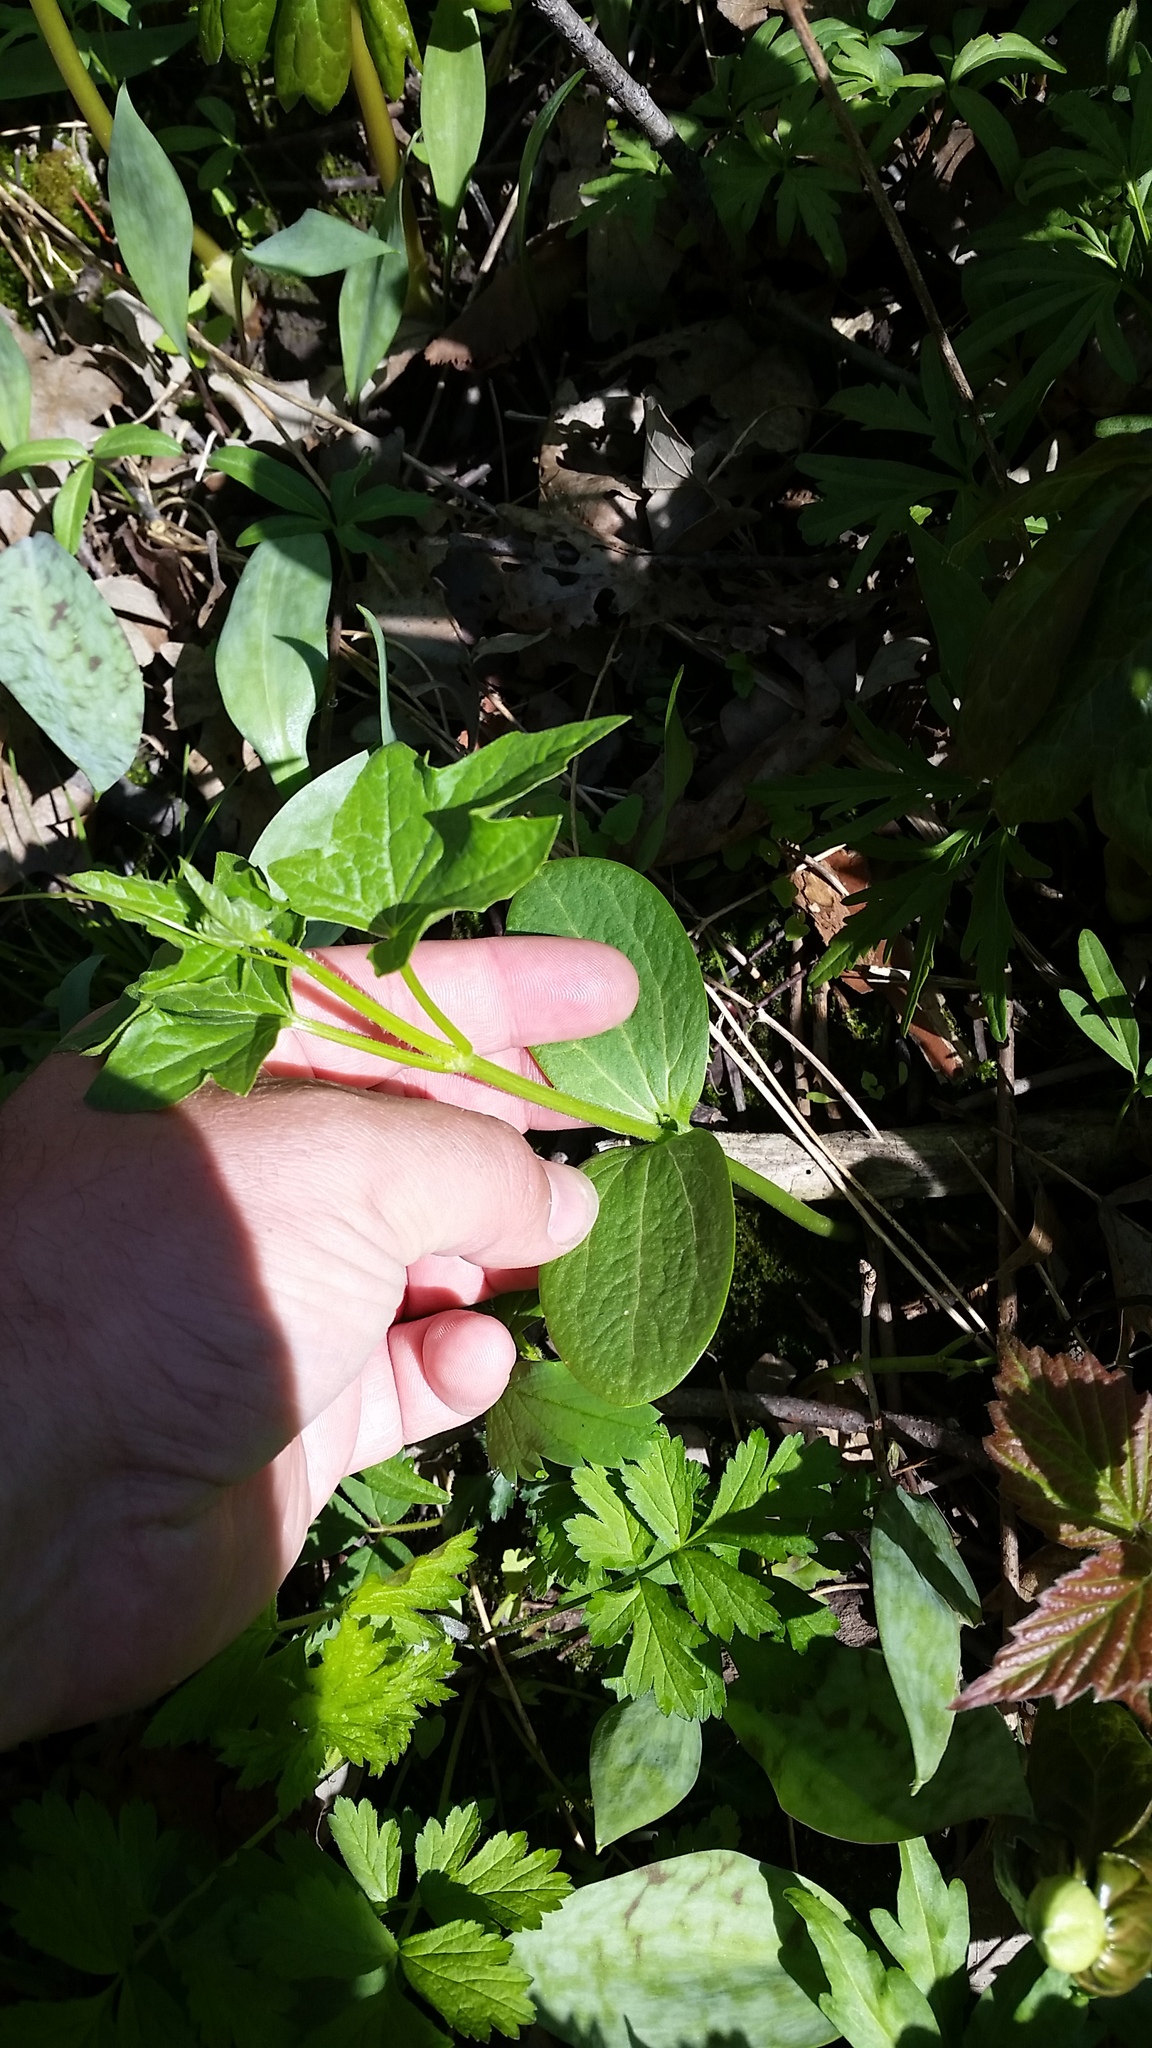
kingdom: Plantae
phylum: Tracheophyta
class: Magnoliopsida
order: Cucurbitales
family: Cucurbitaceae
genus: Echinocystis
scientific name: Echinocystis lobata
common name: Wild cucumber
